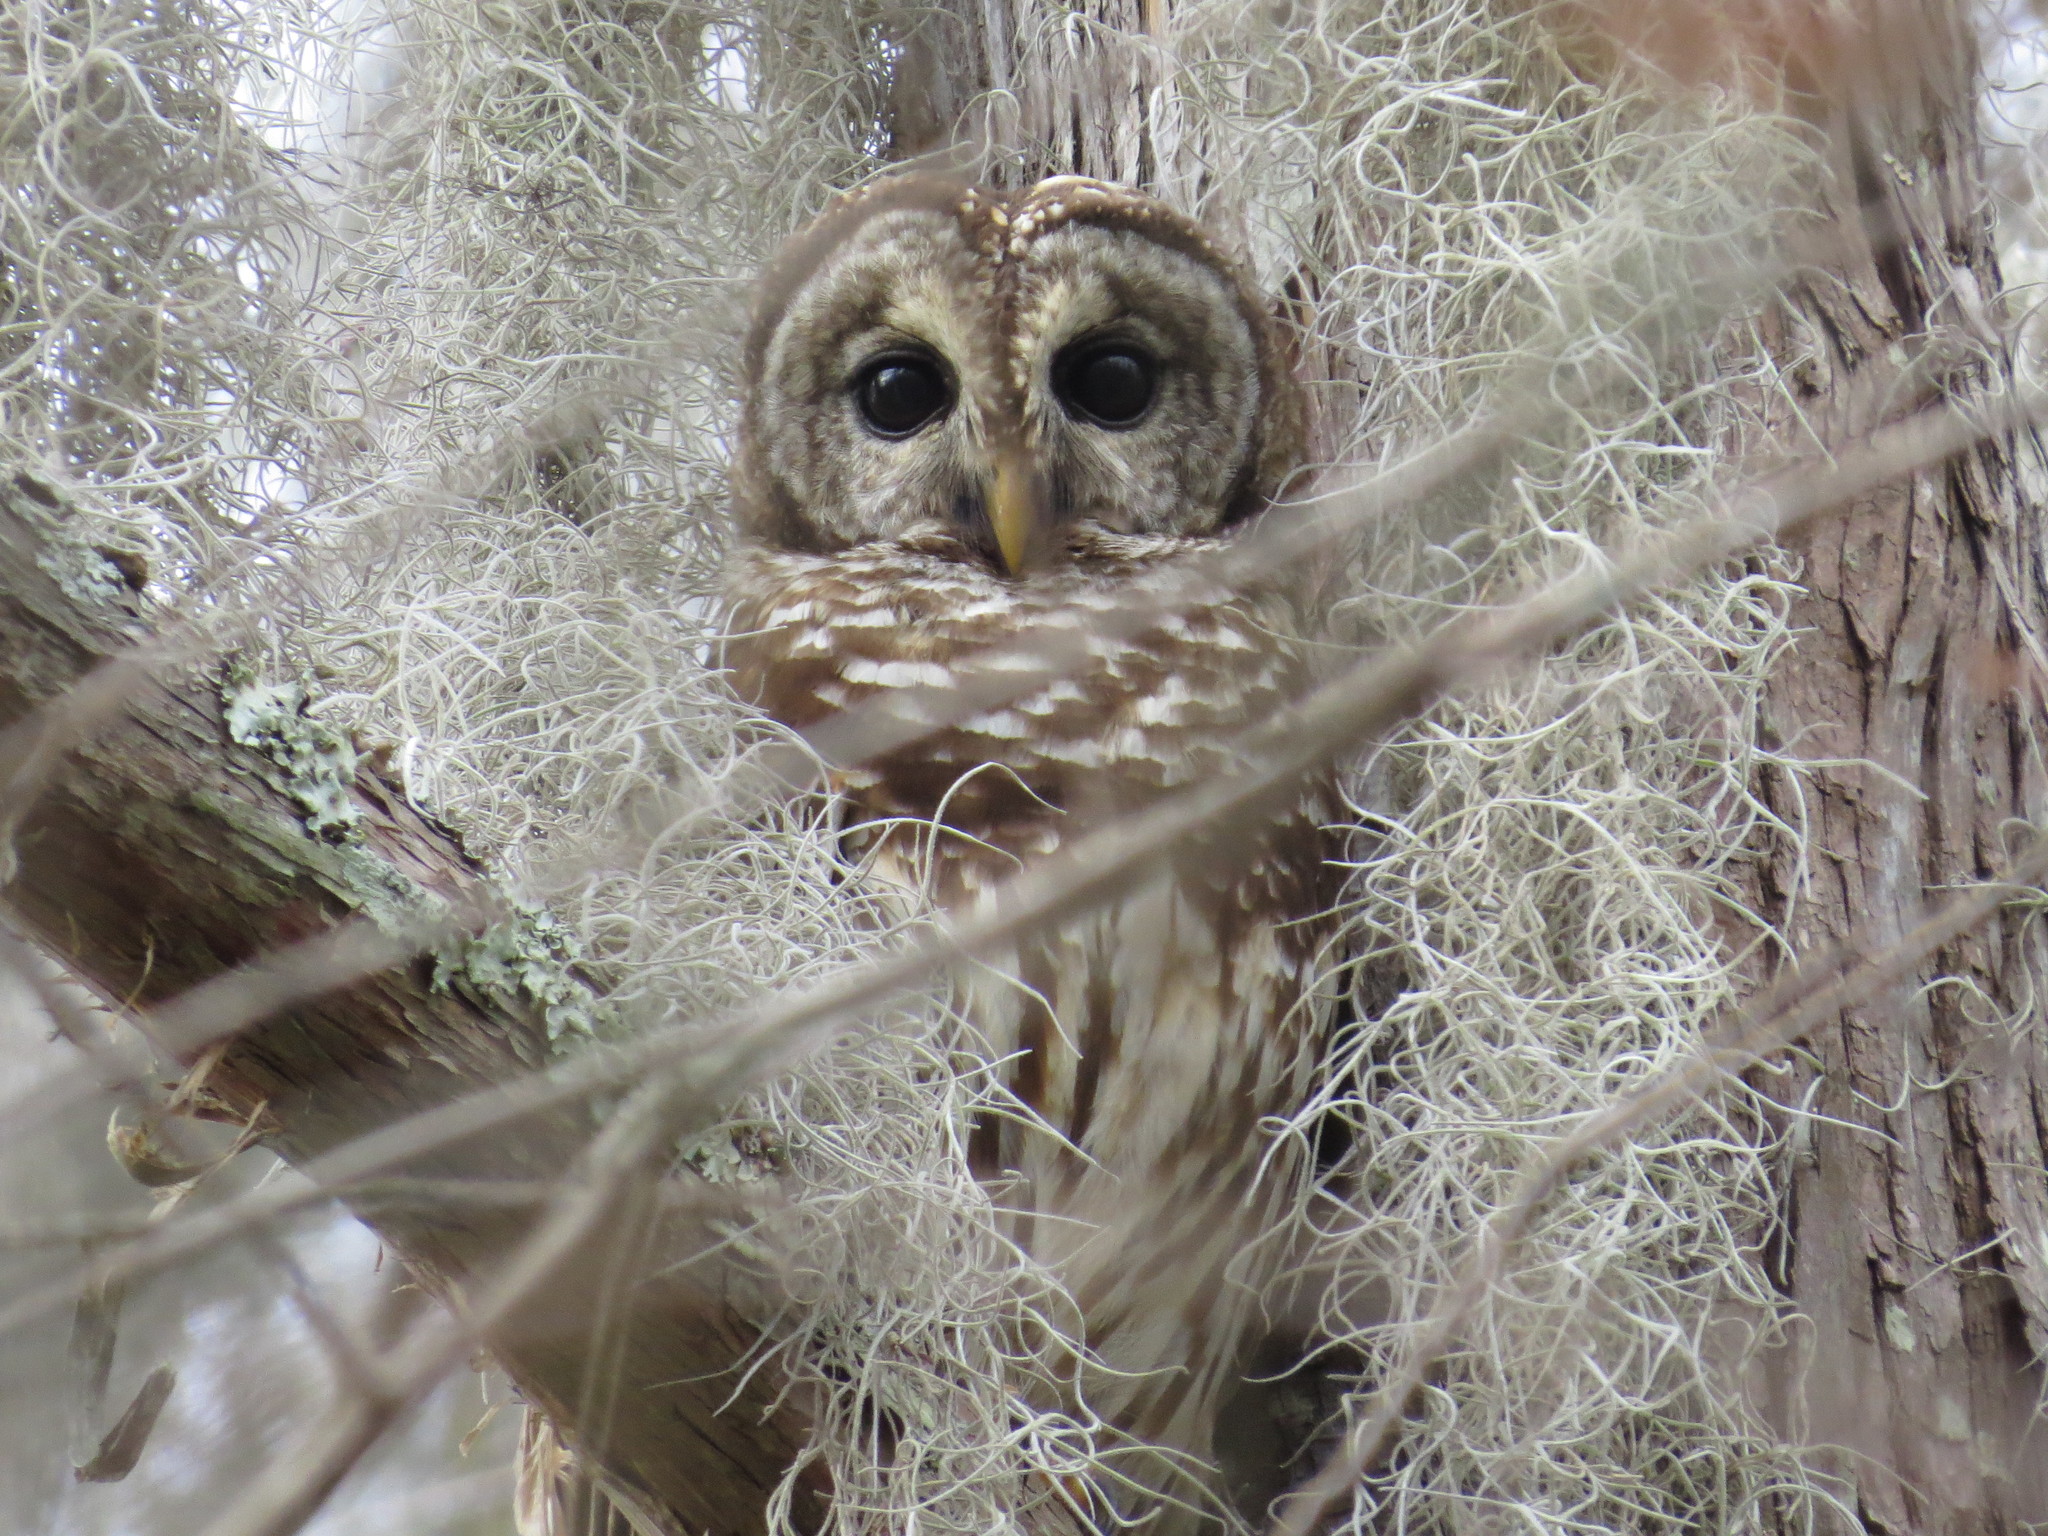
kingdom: Animalia
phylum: Chordata
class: Aves
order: Strigiformes
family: Strigidae
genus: Strix
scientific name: Strix varia
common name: Barred owl
